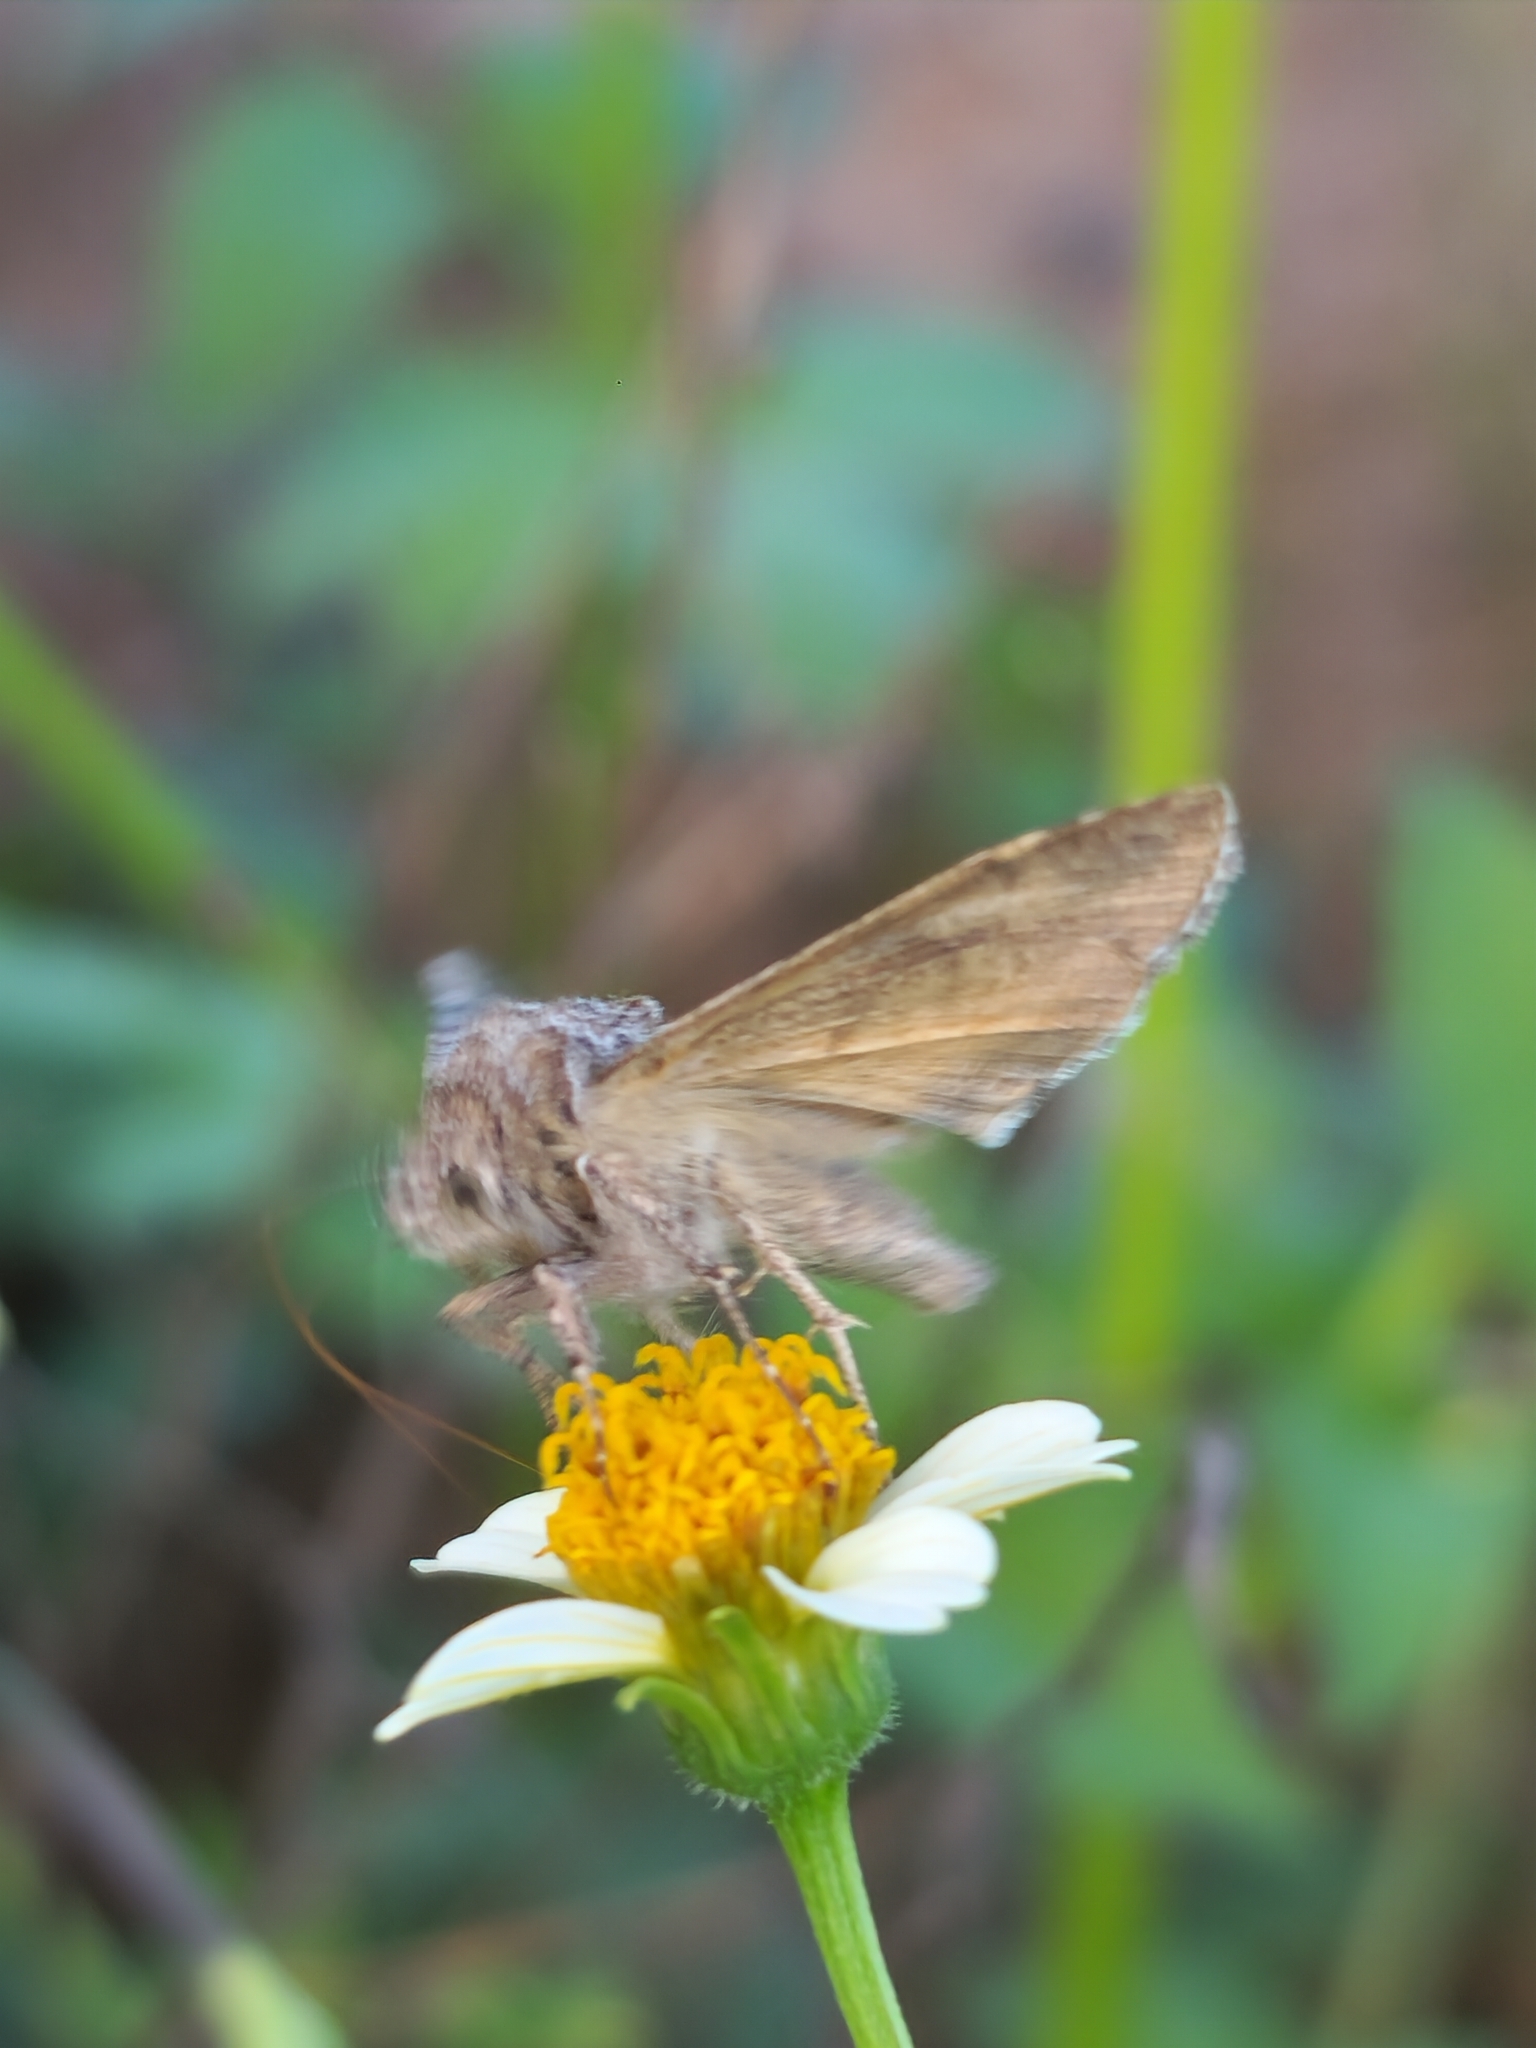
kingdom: Animalia
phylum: Arthropoda
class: Insecta
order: Lepidoptera
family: Noctuidae
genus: Rachiplusia
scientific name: Rachiplusia nu
